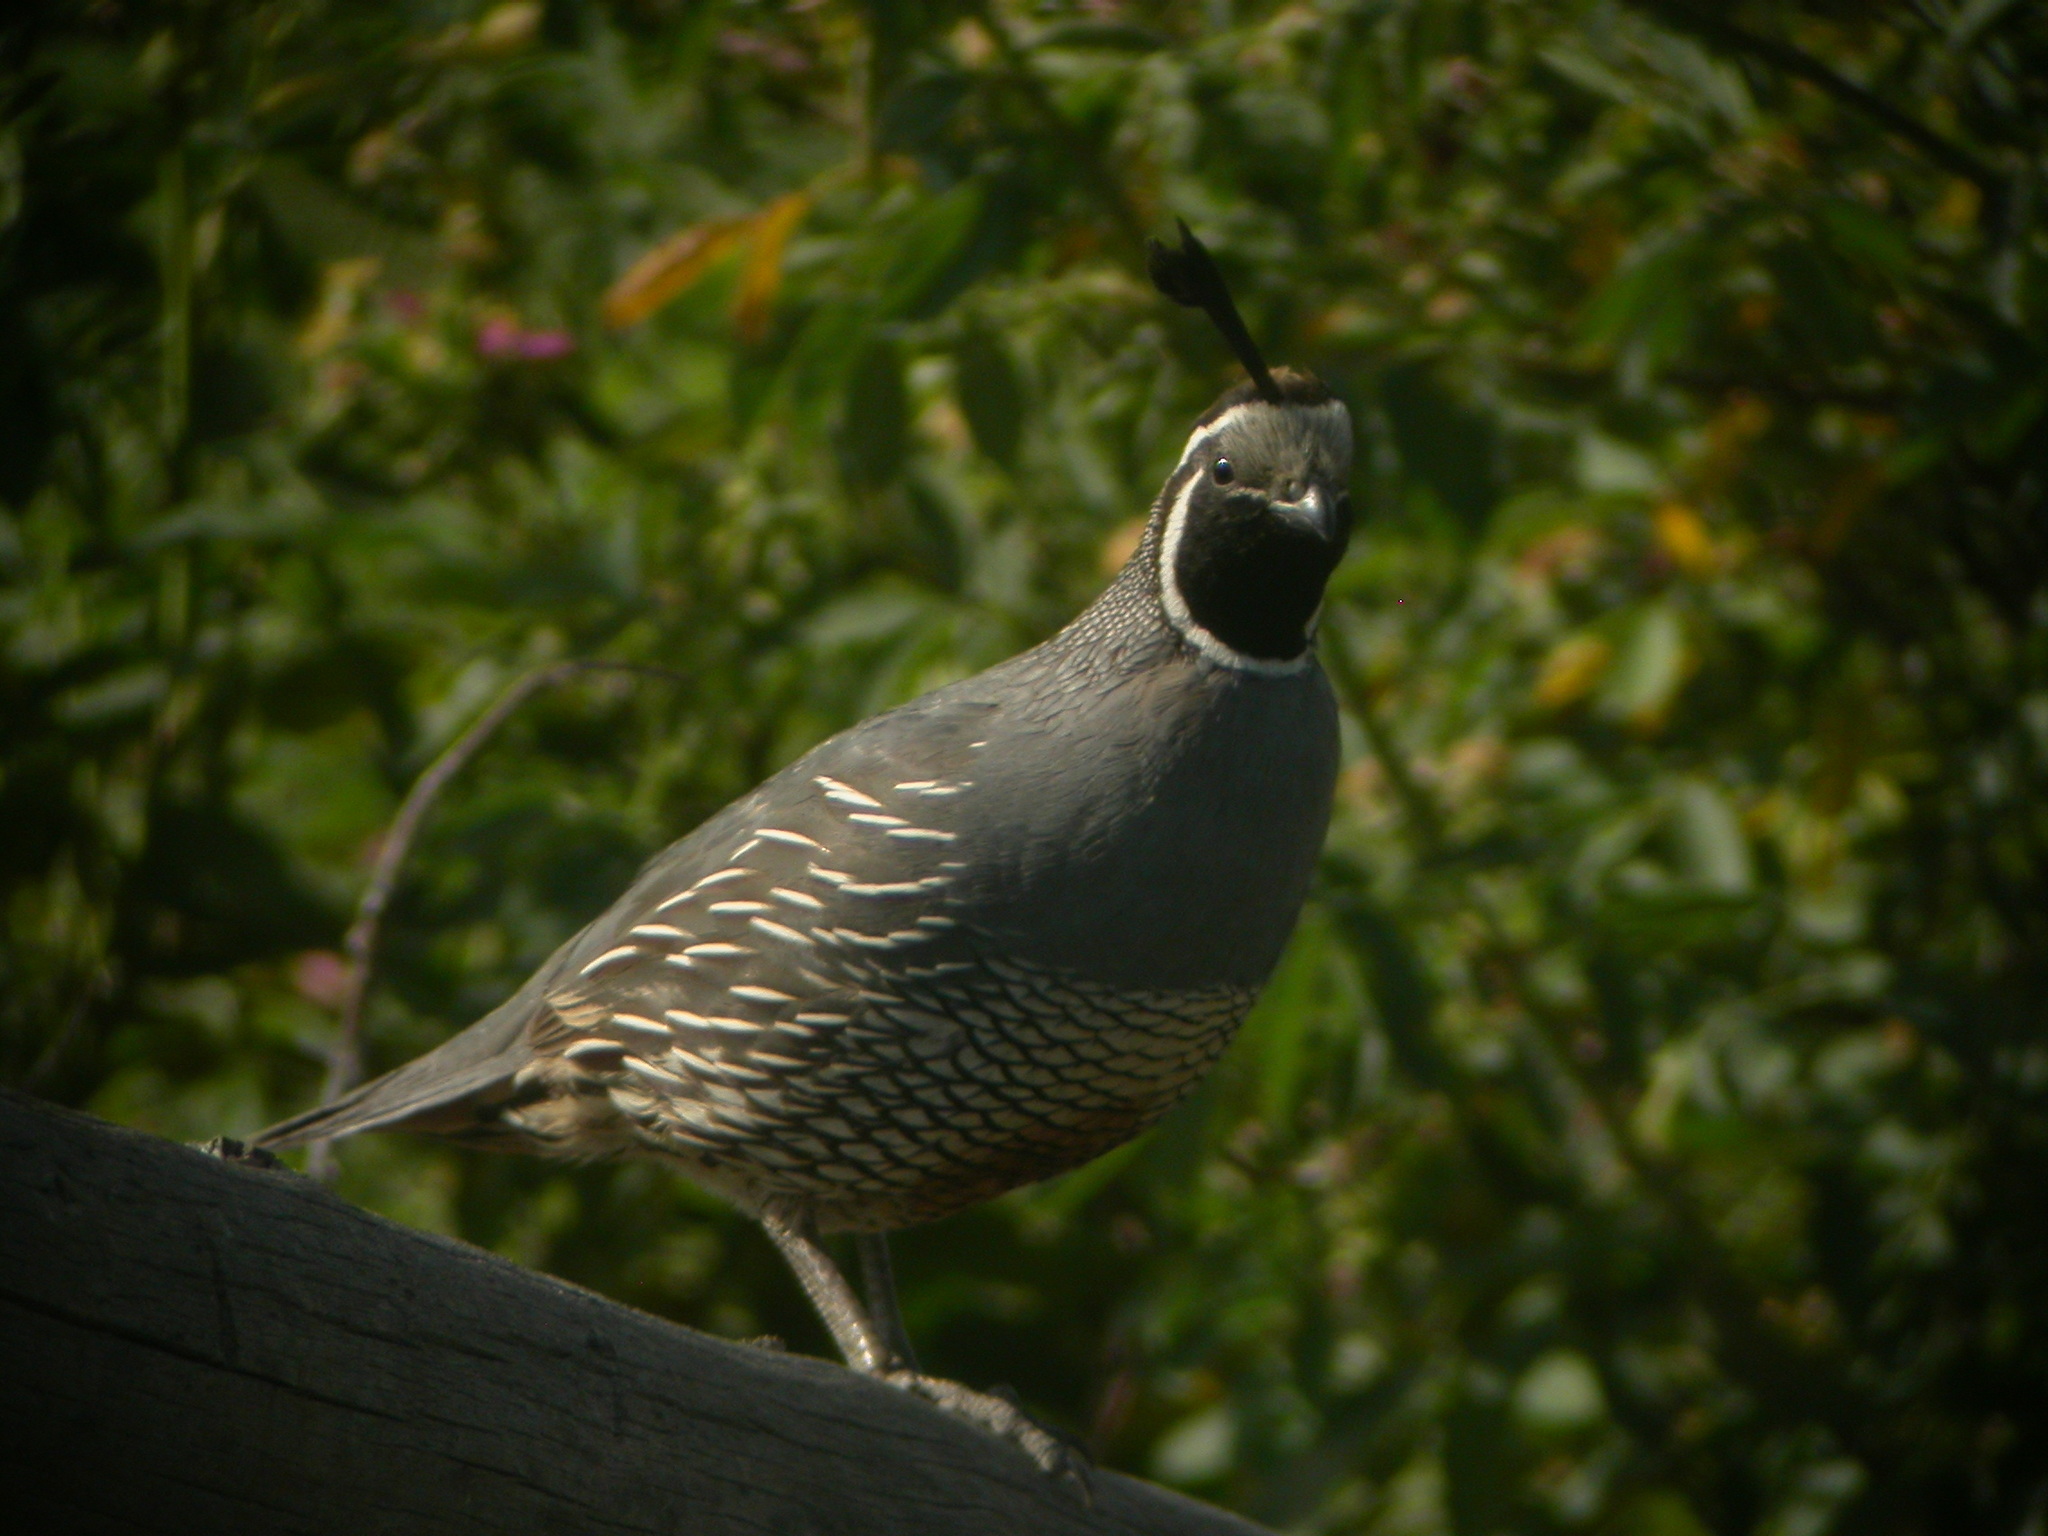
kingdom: Animalia
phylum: Chordata
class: Aves
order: Galliformes
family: Odontophoridae
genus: Callipepla
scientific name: Callipepla californica
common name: California quail
